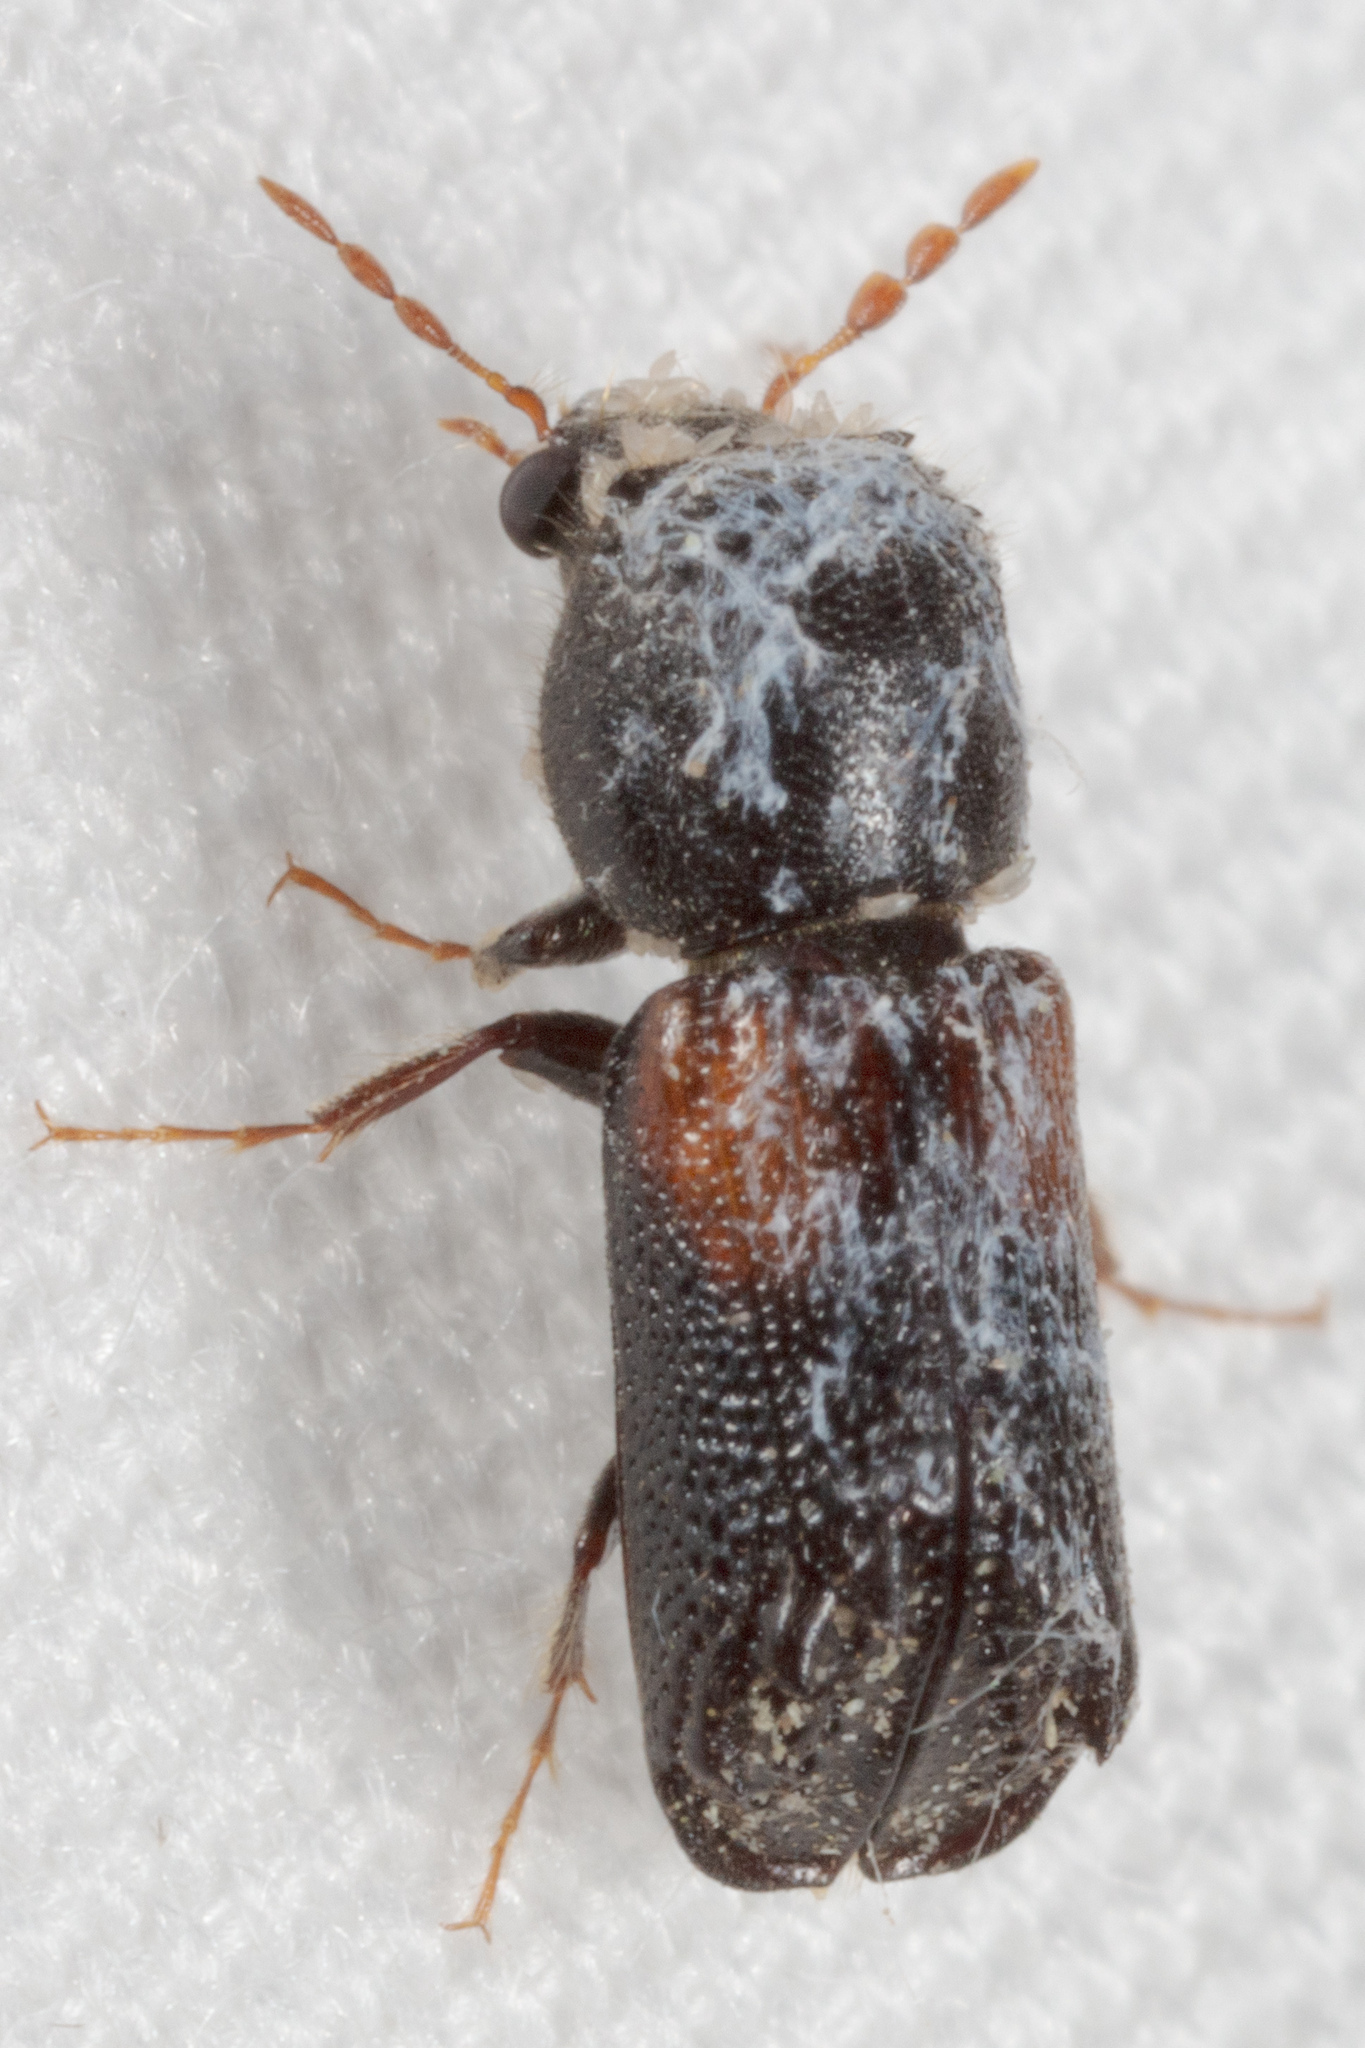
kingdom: Animalia
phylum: Arthropoda
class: Insecta
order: Coleoptera
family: Bostrichidae
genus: Xylobiops
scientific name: Xylobiops basilaris
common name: Red-shouldered bostrichid
